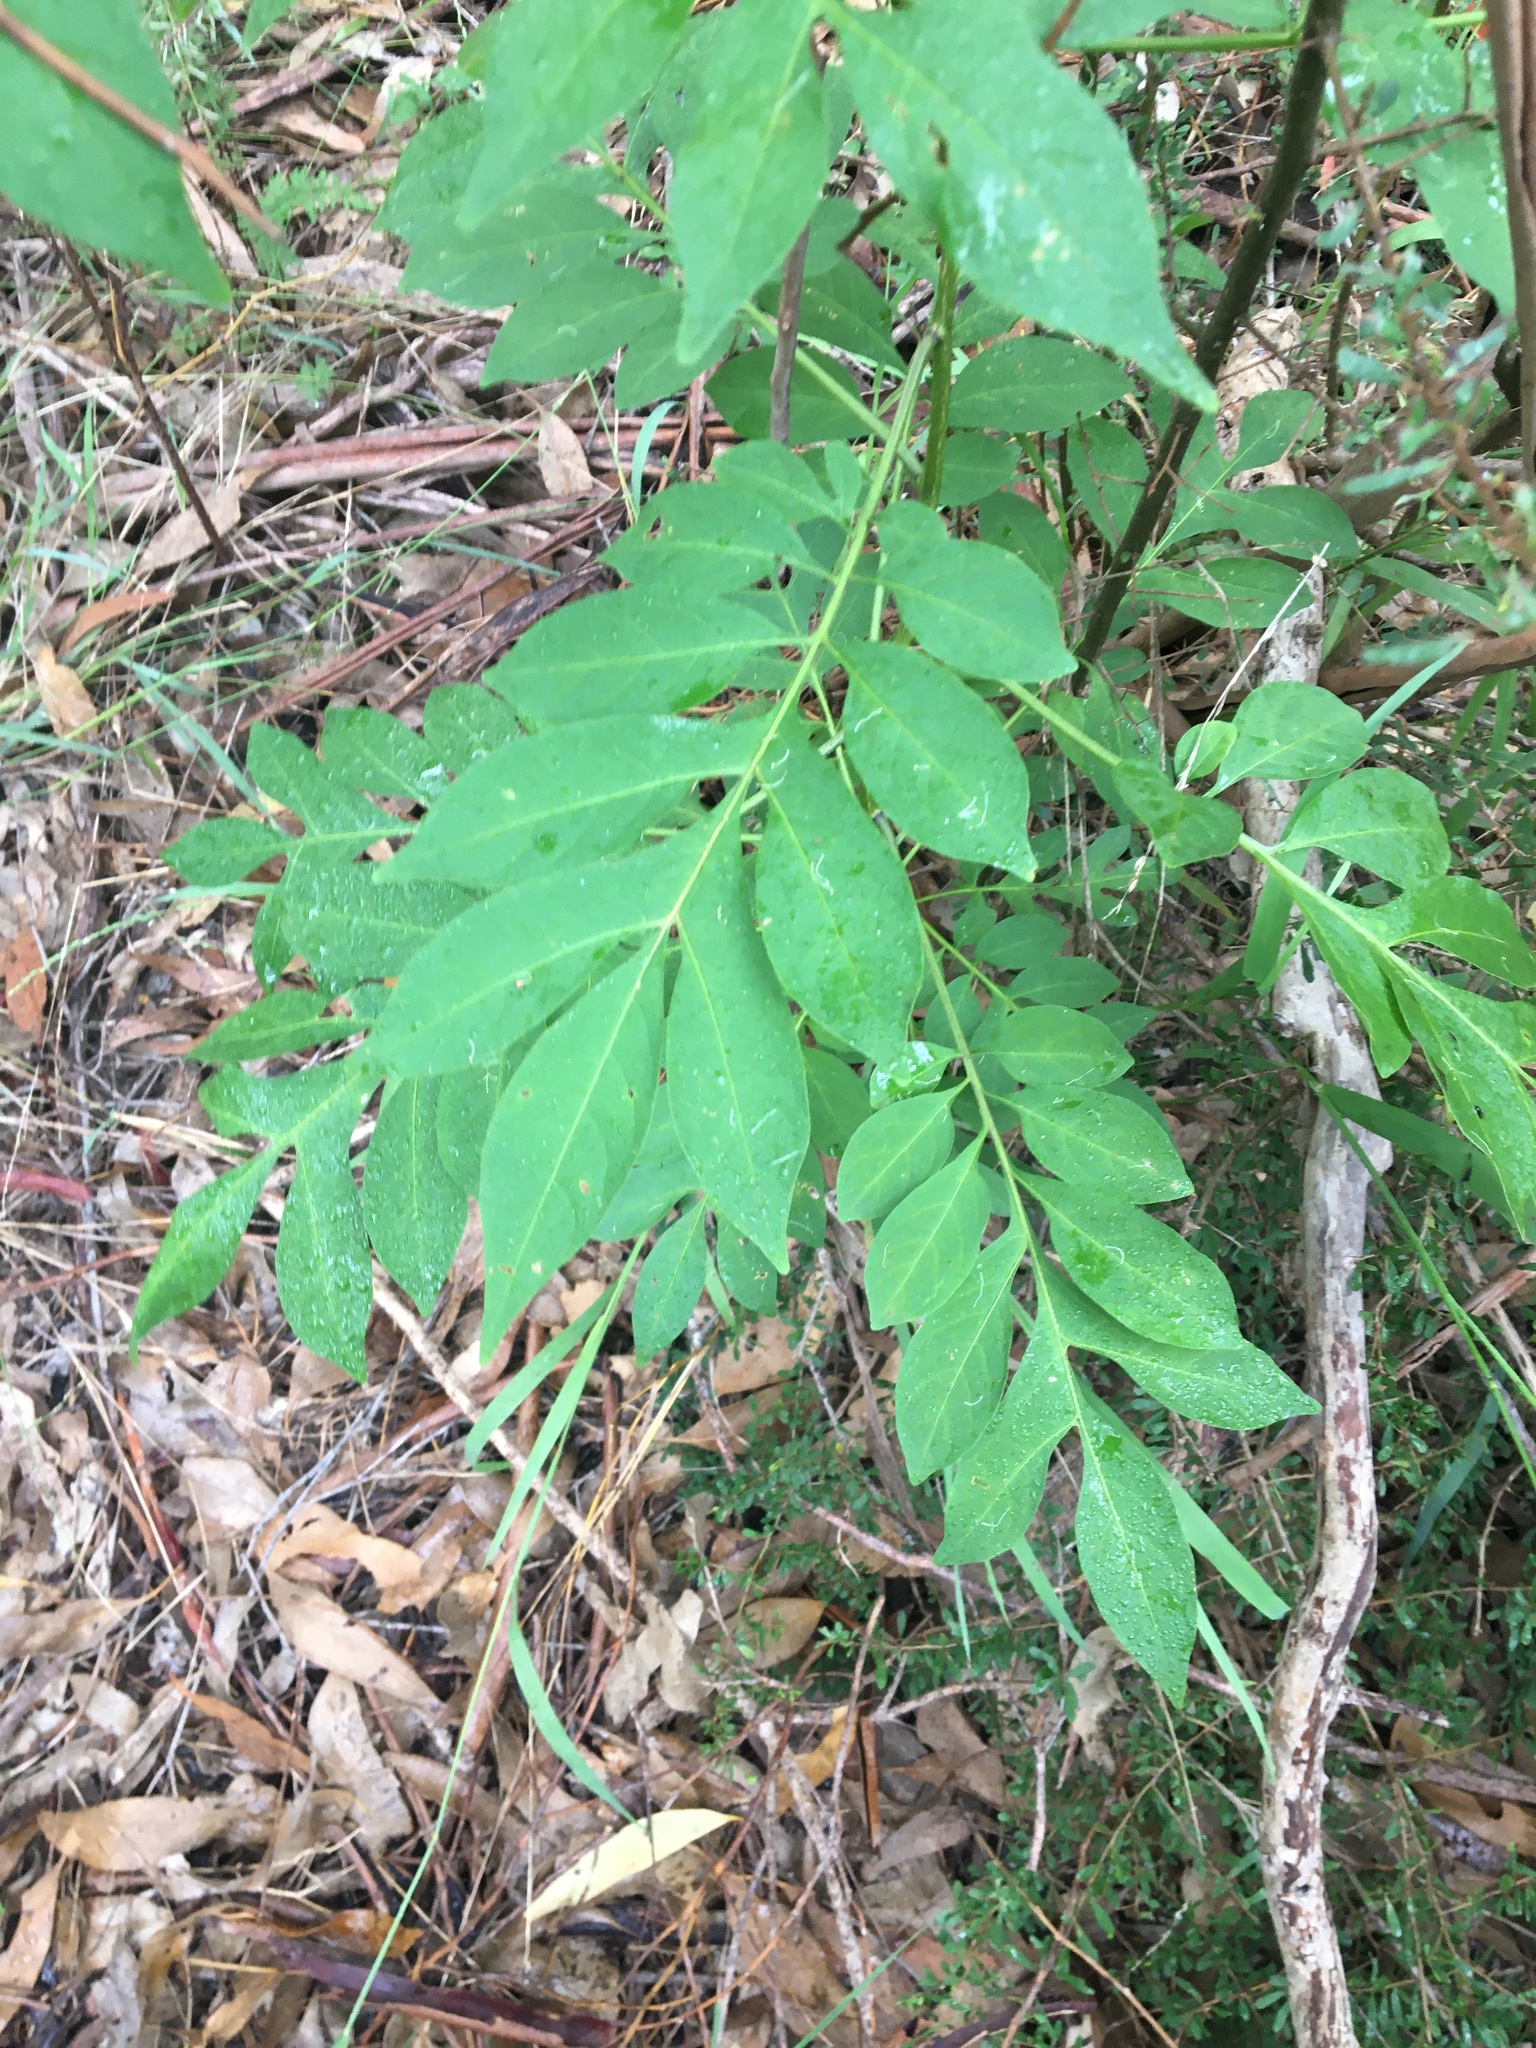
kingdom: Plantae
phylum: Tracheophyta
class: Magnoliopsida
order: Solanales
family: Solanaceae
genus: Solanum
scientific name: Solanum seaforthianum
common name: Brazilian nightshade
